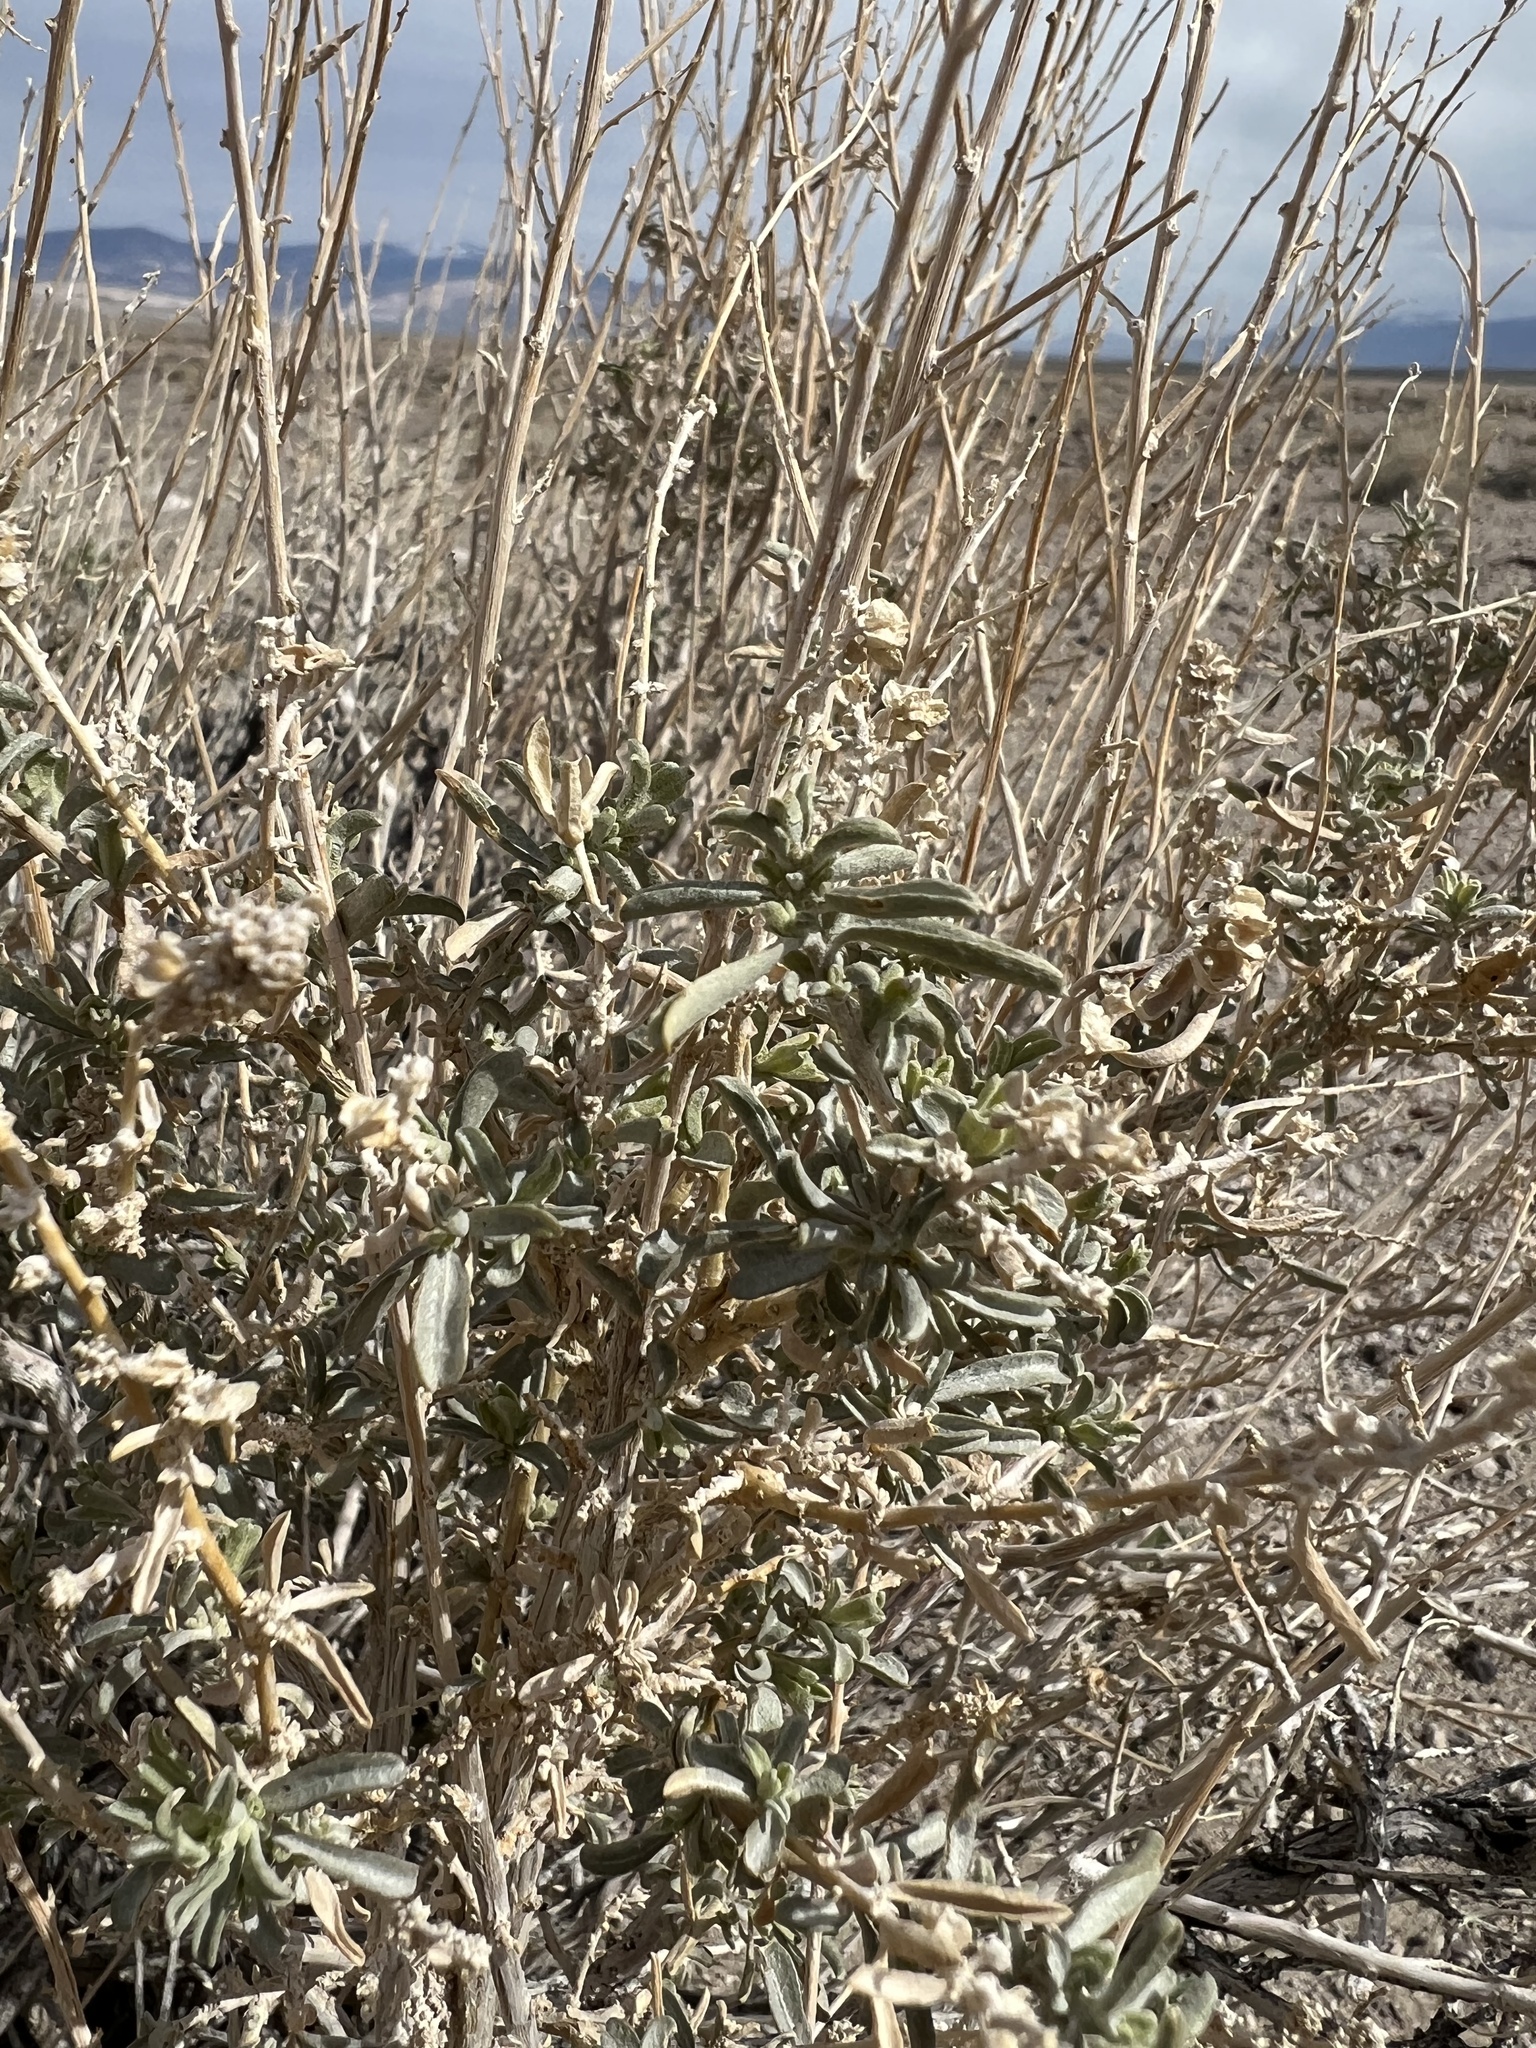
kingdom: Plantae
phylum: Tracheophyta
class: Magnoliopsida
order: Caryophyllales
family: Amaranthaceae
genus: Atriplex
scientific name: Atriplex canescens
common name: Four-wing saltbush
